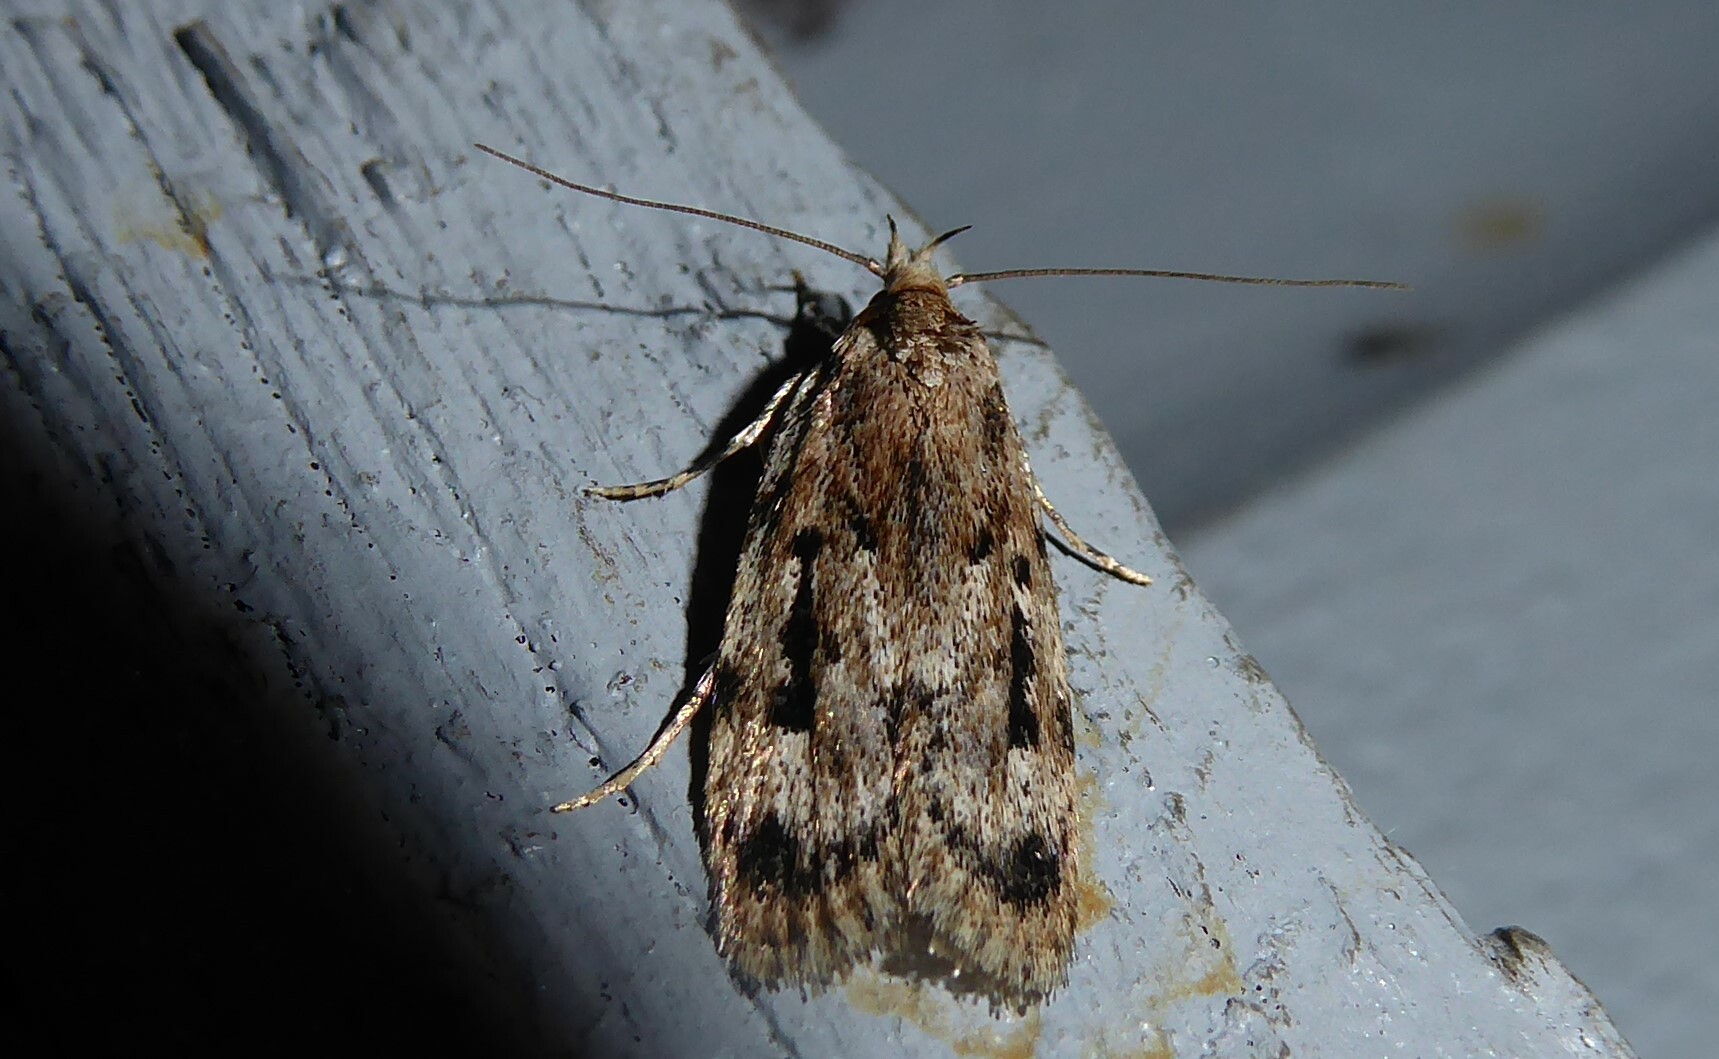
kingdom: Animalia
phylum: Arthropoda
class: Insecta
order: Lepidoptera
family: Oecophoridae
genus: Barea
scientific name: Barea exarcha
